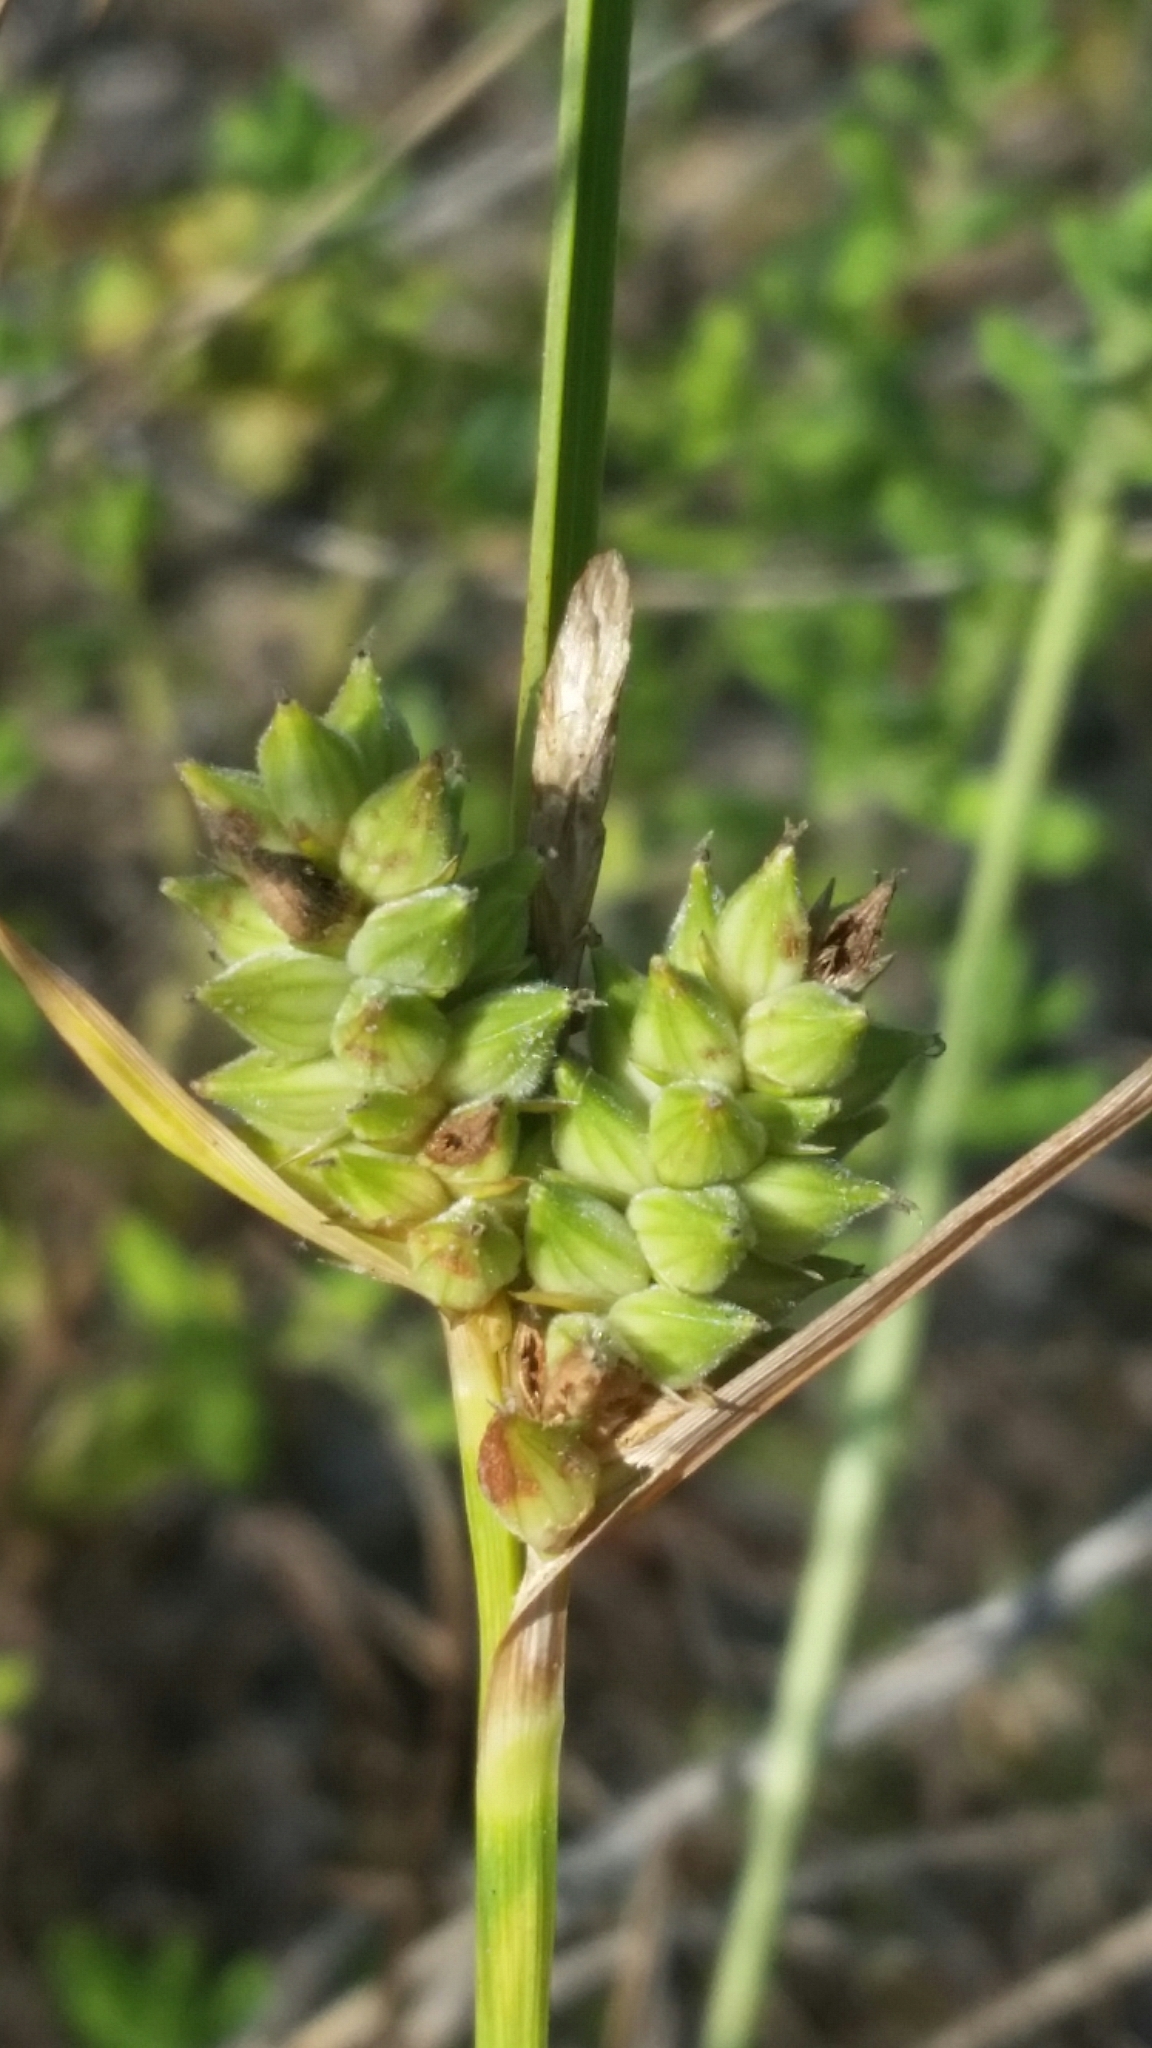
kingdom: Plantae
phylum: Tracheophyta
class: Liliopsida
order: Poales
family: Cyperaceae
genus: Carex
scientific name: Carex tenax
